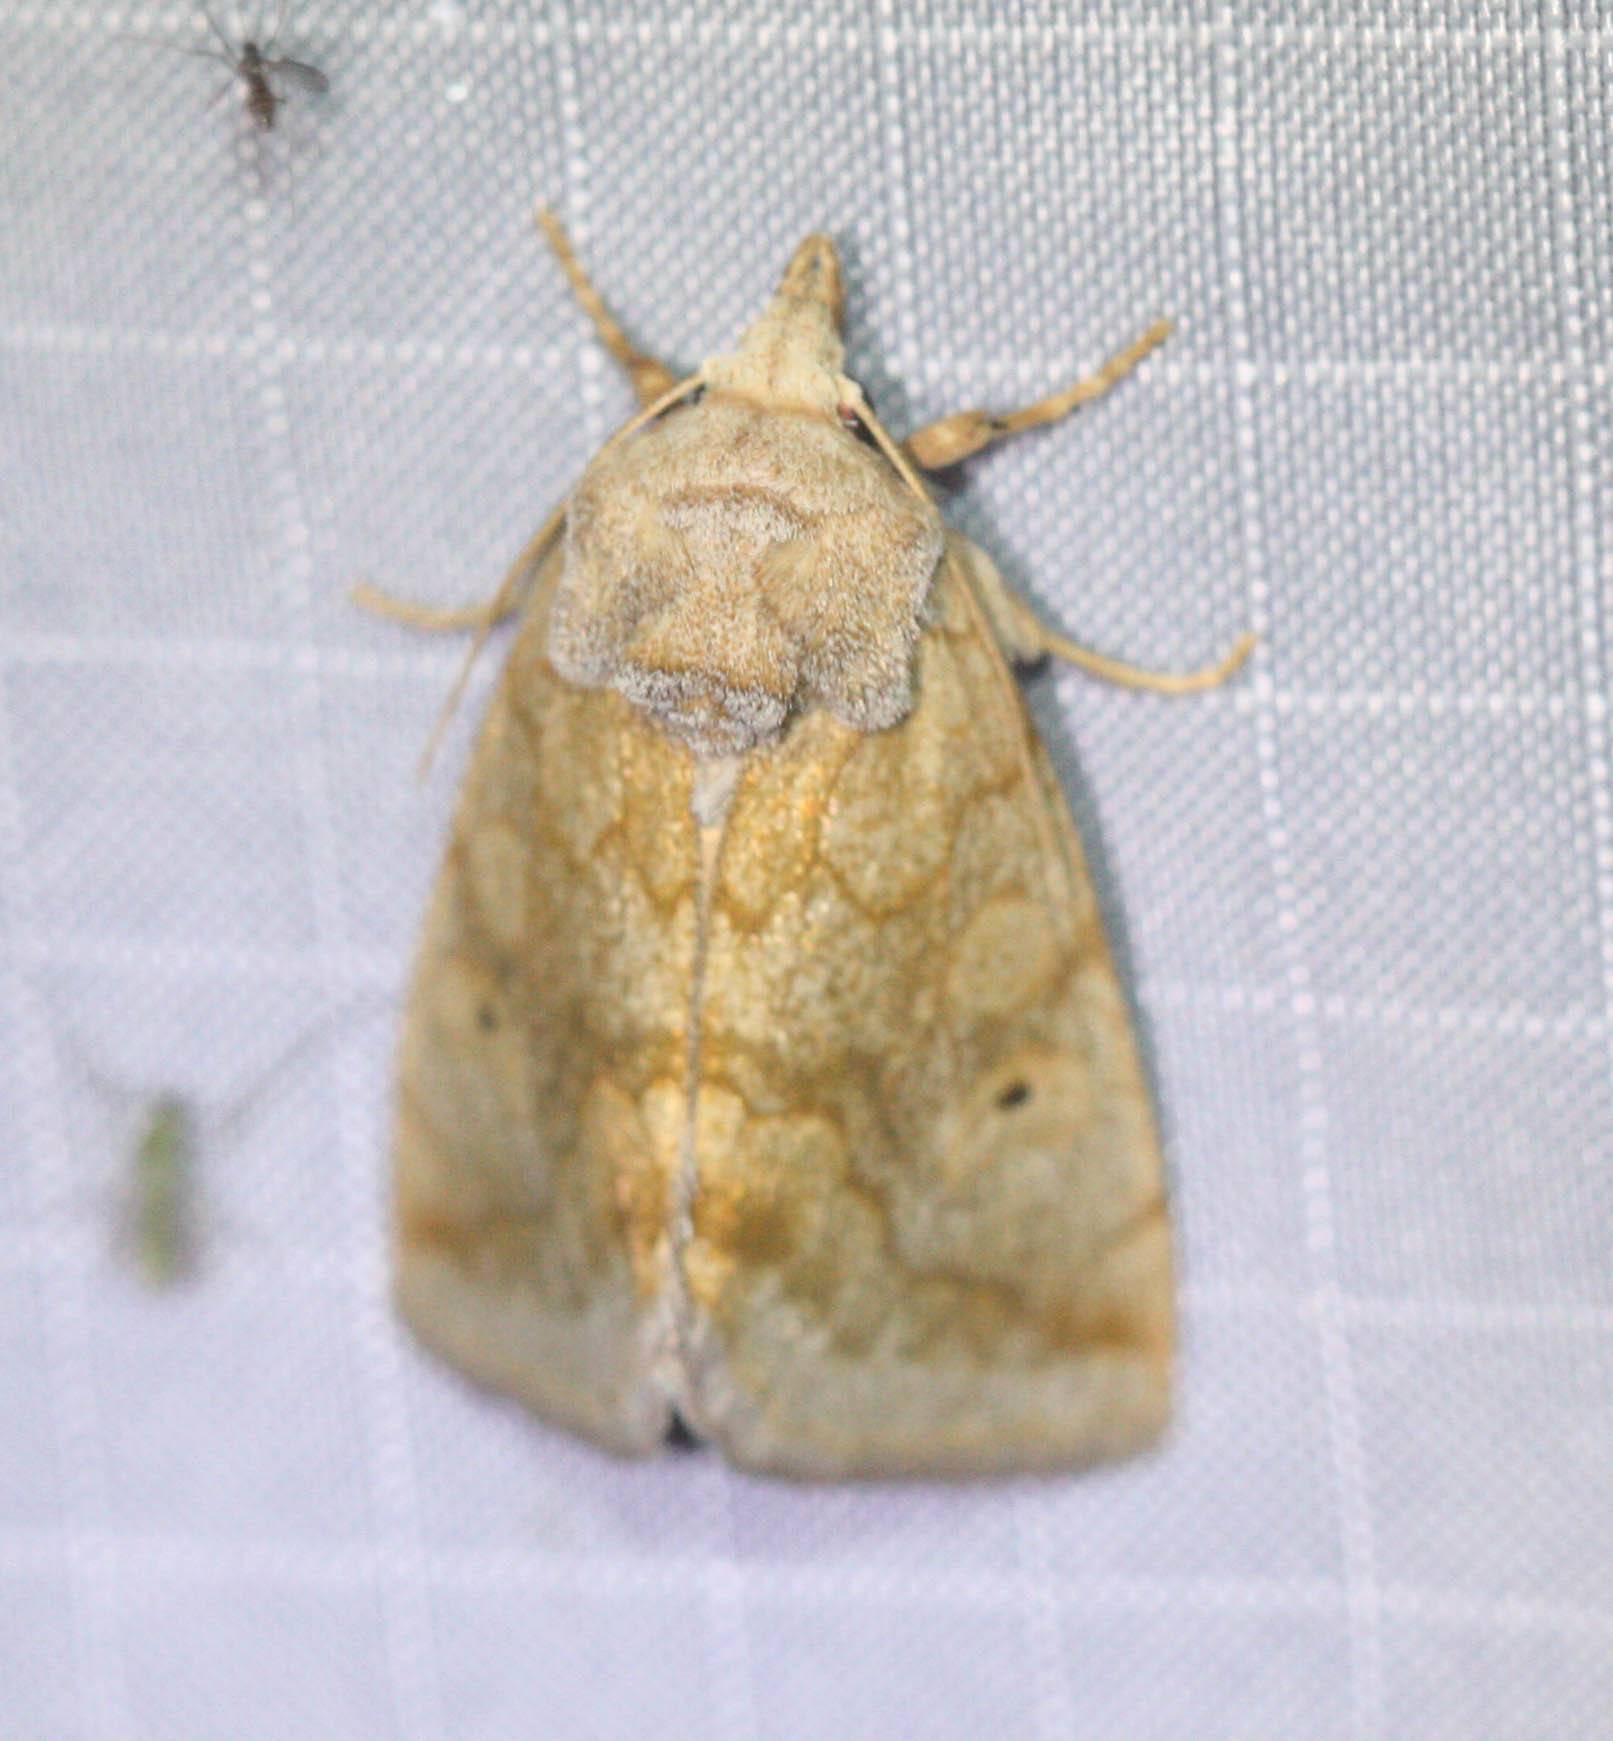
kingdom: Animalia
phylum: Arthropoda
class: Insecta
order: Lepidoptera
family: Noctuidae
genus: Basilodes
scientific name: Basilodes chrysopis
